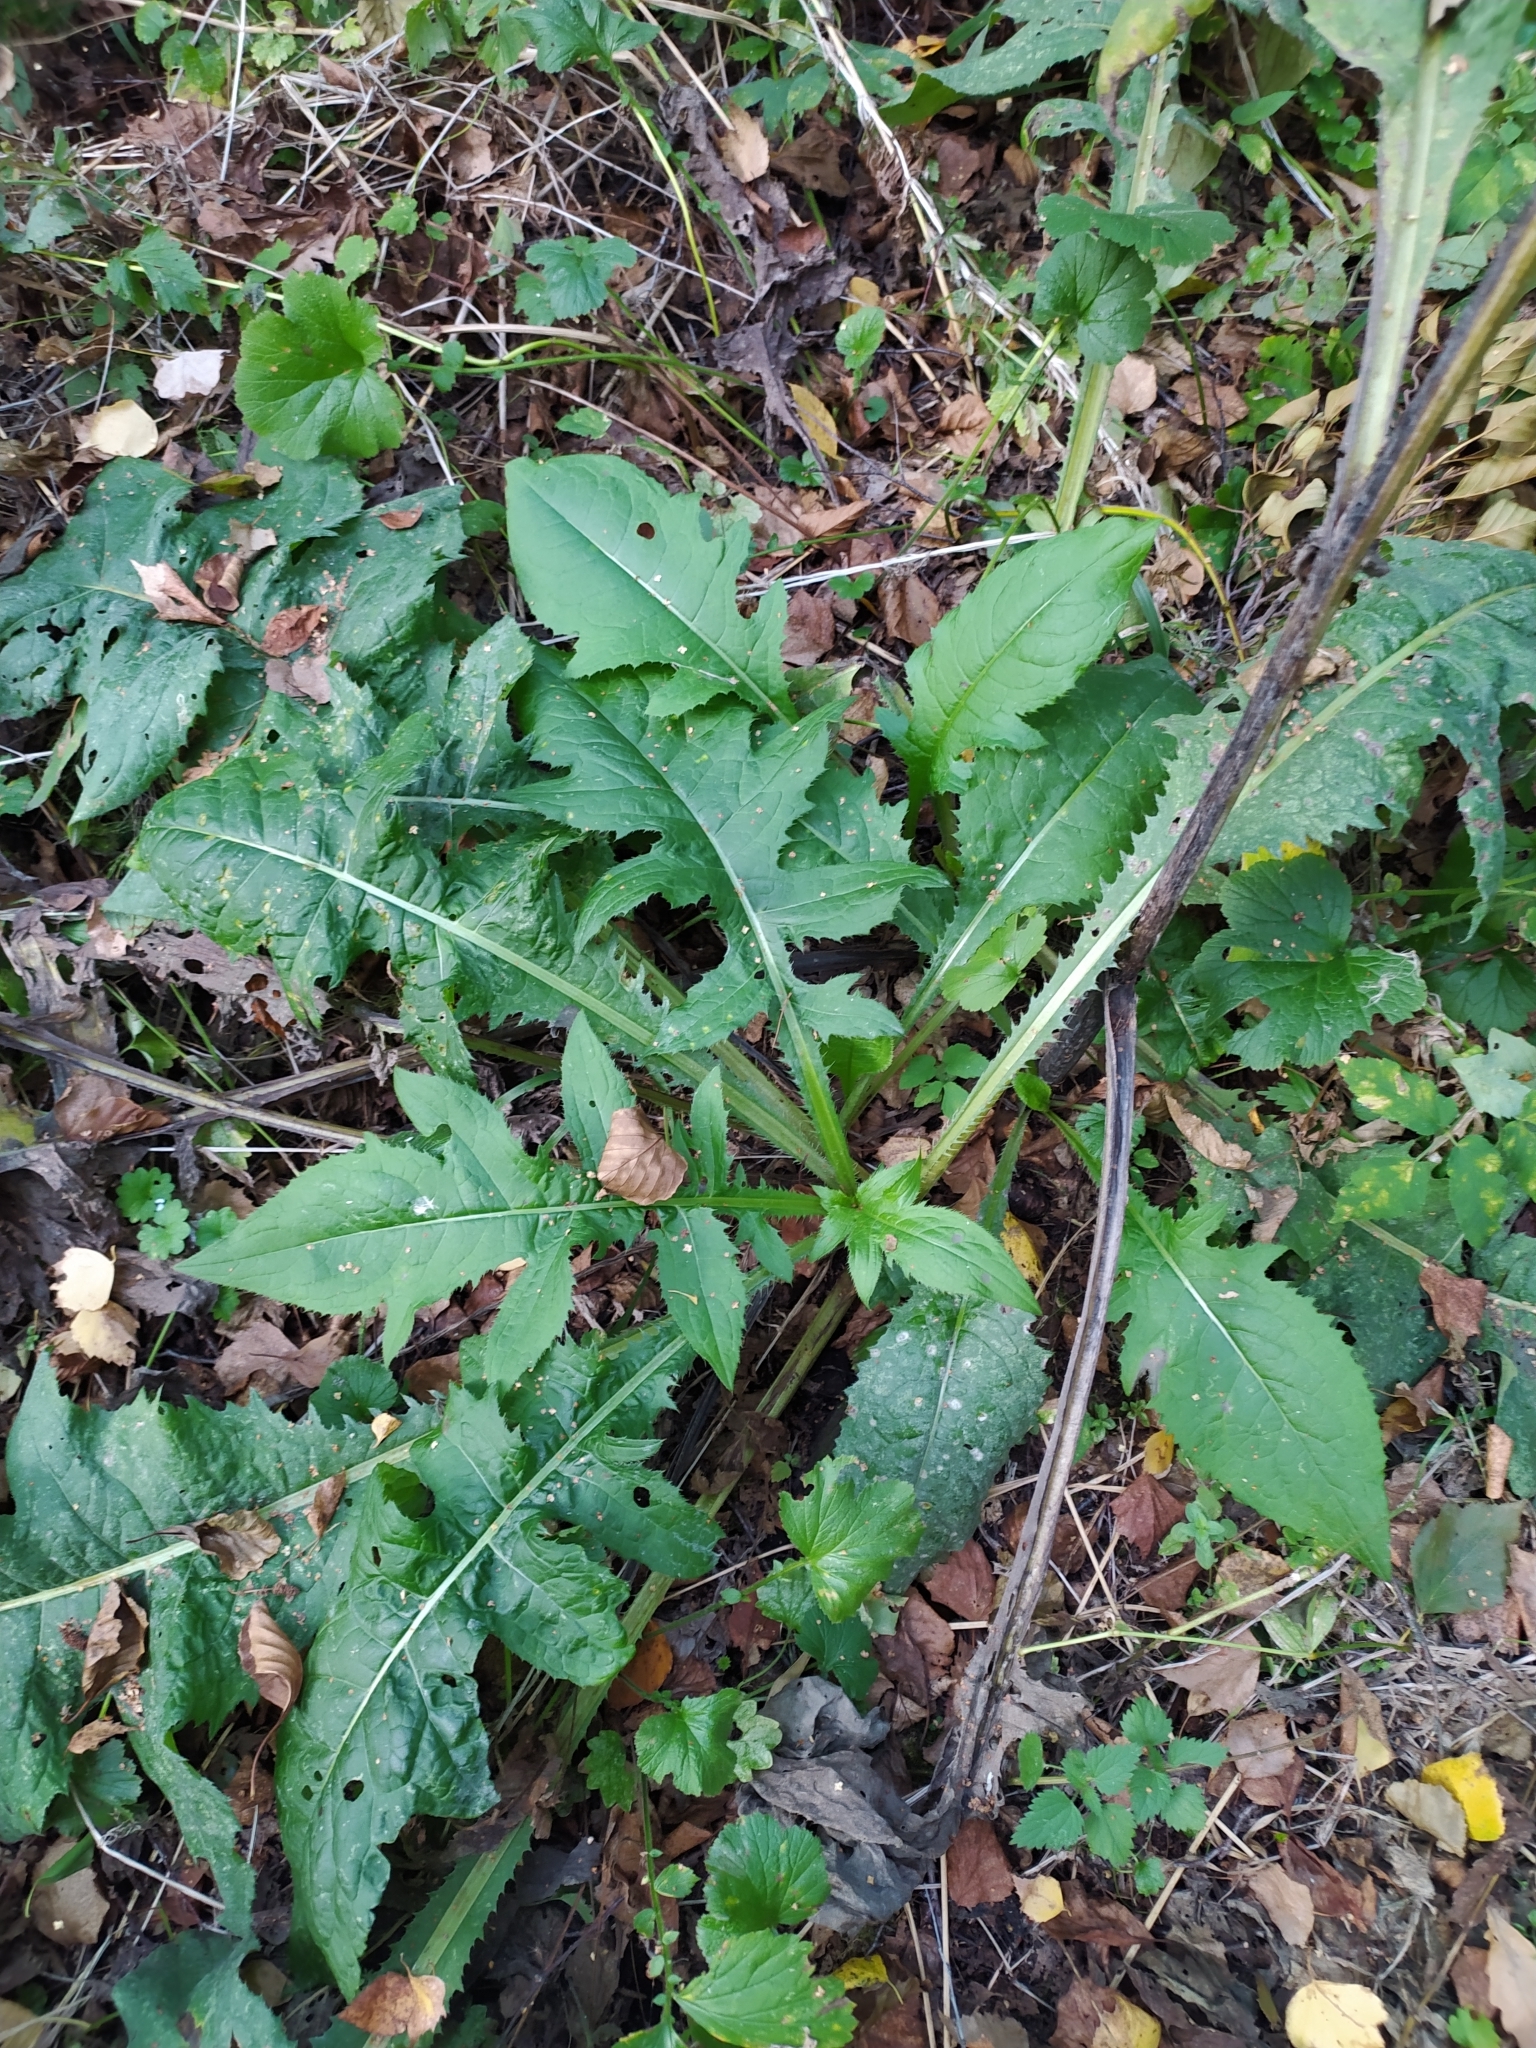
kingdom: Plantae
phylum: Tracheophyta
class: Magnoliopsida
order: Asterales
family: Asteraceae
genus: Cirsium
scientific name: Cirsium oleraceum
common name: Cabbage thistle
